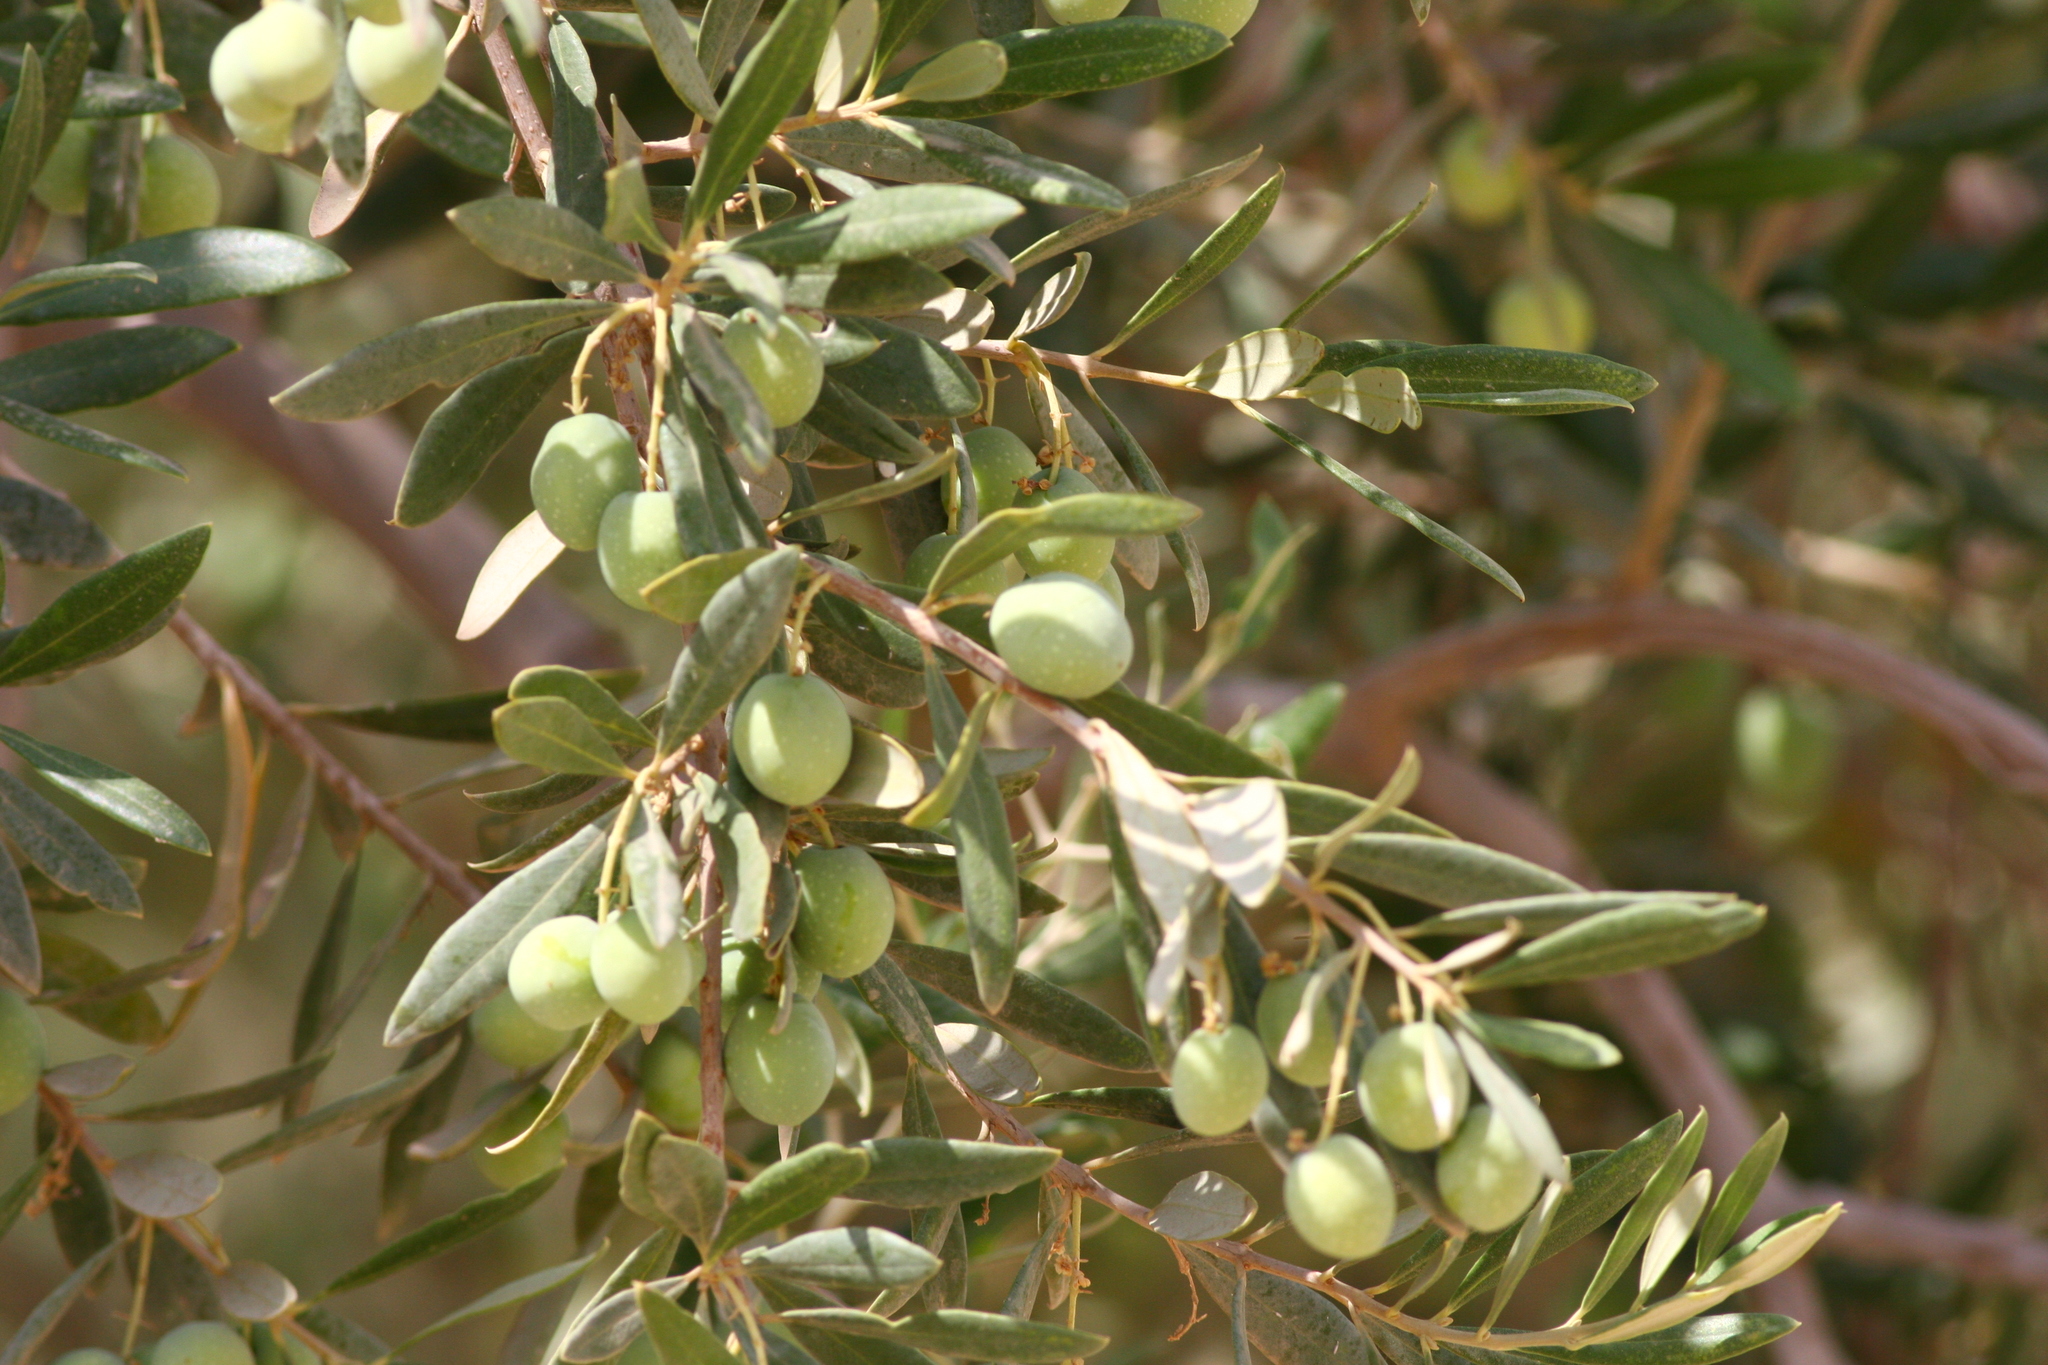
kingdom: Plantae
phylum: Tracheophyta
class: Magnoliopsida
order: Lamiales
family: Oleaceae
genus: Olea
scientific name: Olea europaea
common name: Olive
